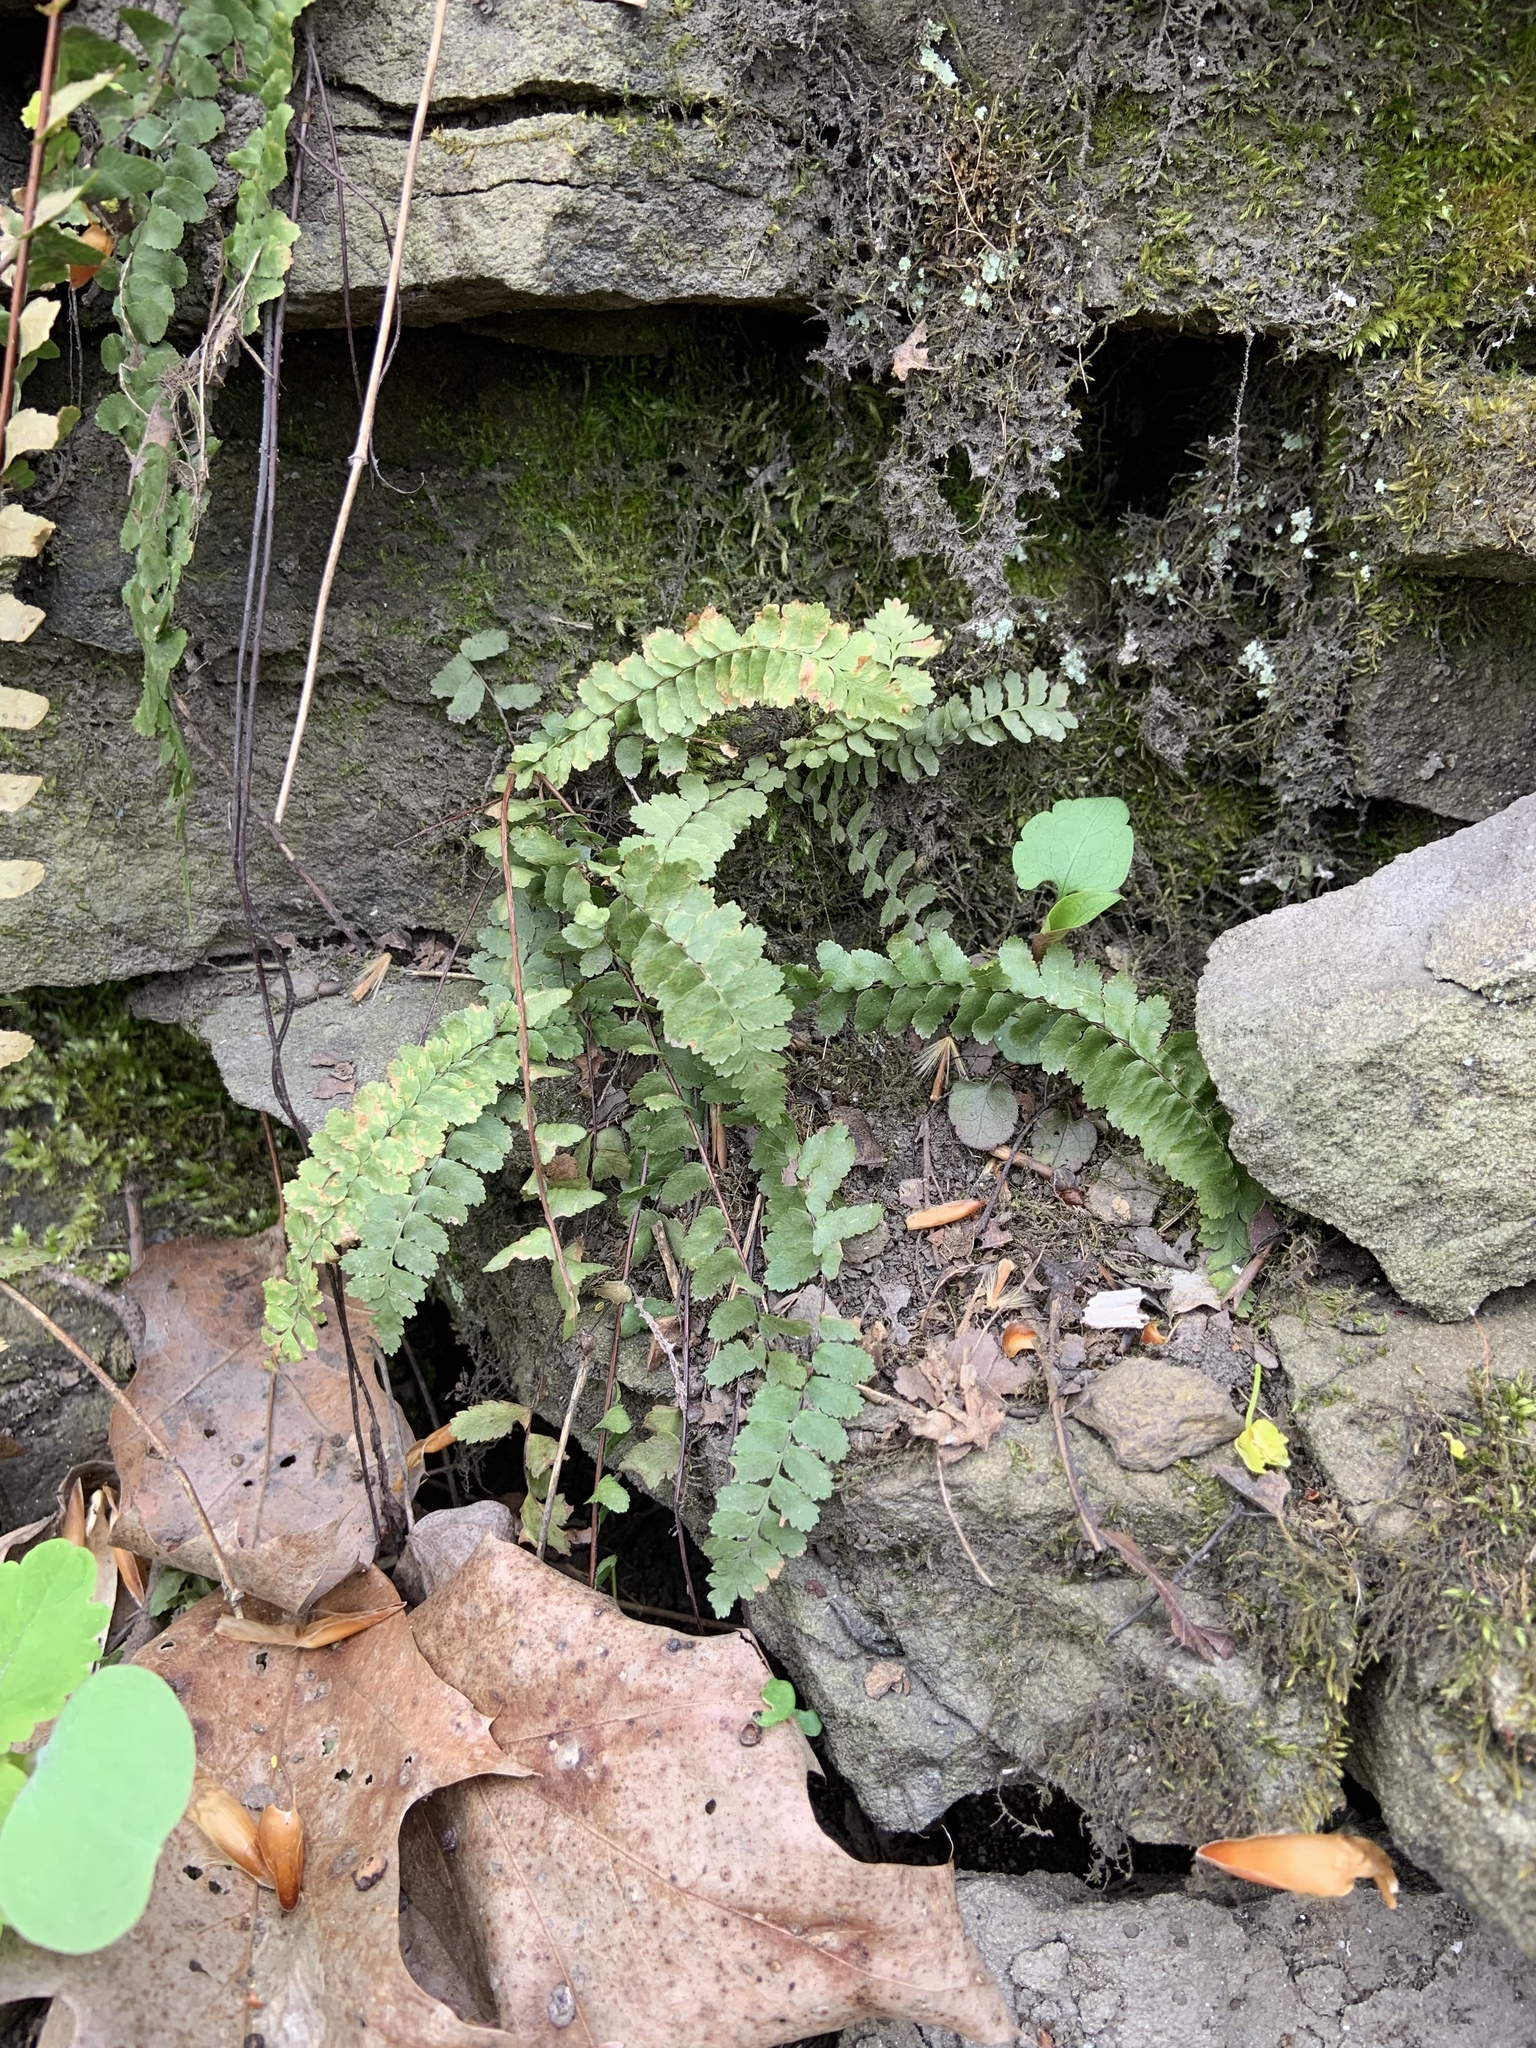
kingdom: Plantae
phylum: Tracheophyta
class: Polypodiopsida
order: Polypodiales
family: Aspleniaceae
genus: Asplenium
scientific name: Asplenium platyneuron
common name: Ebony spleenwort
